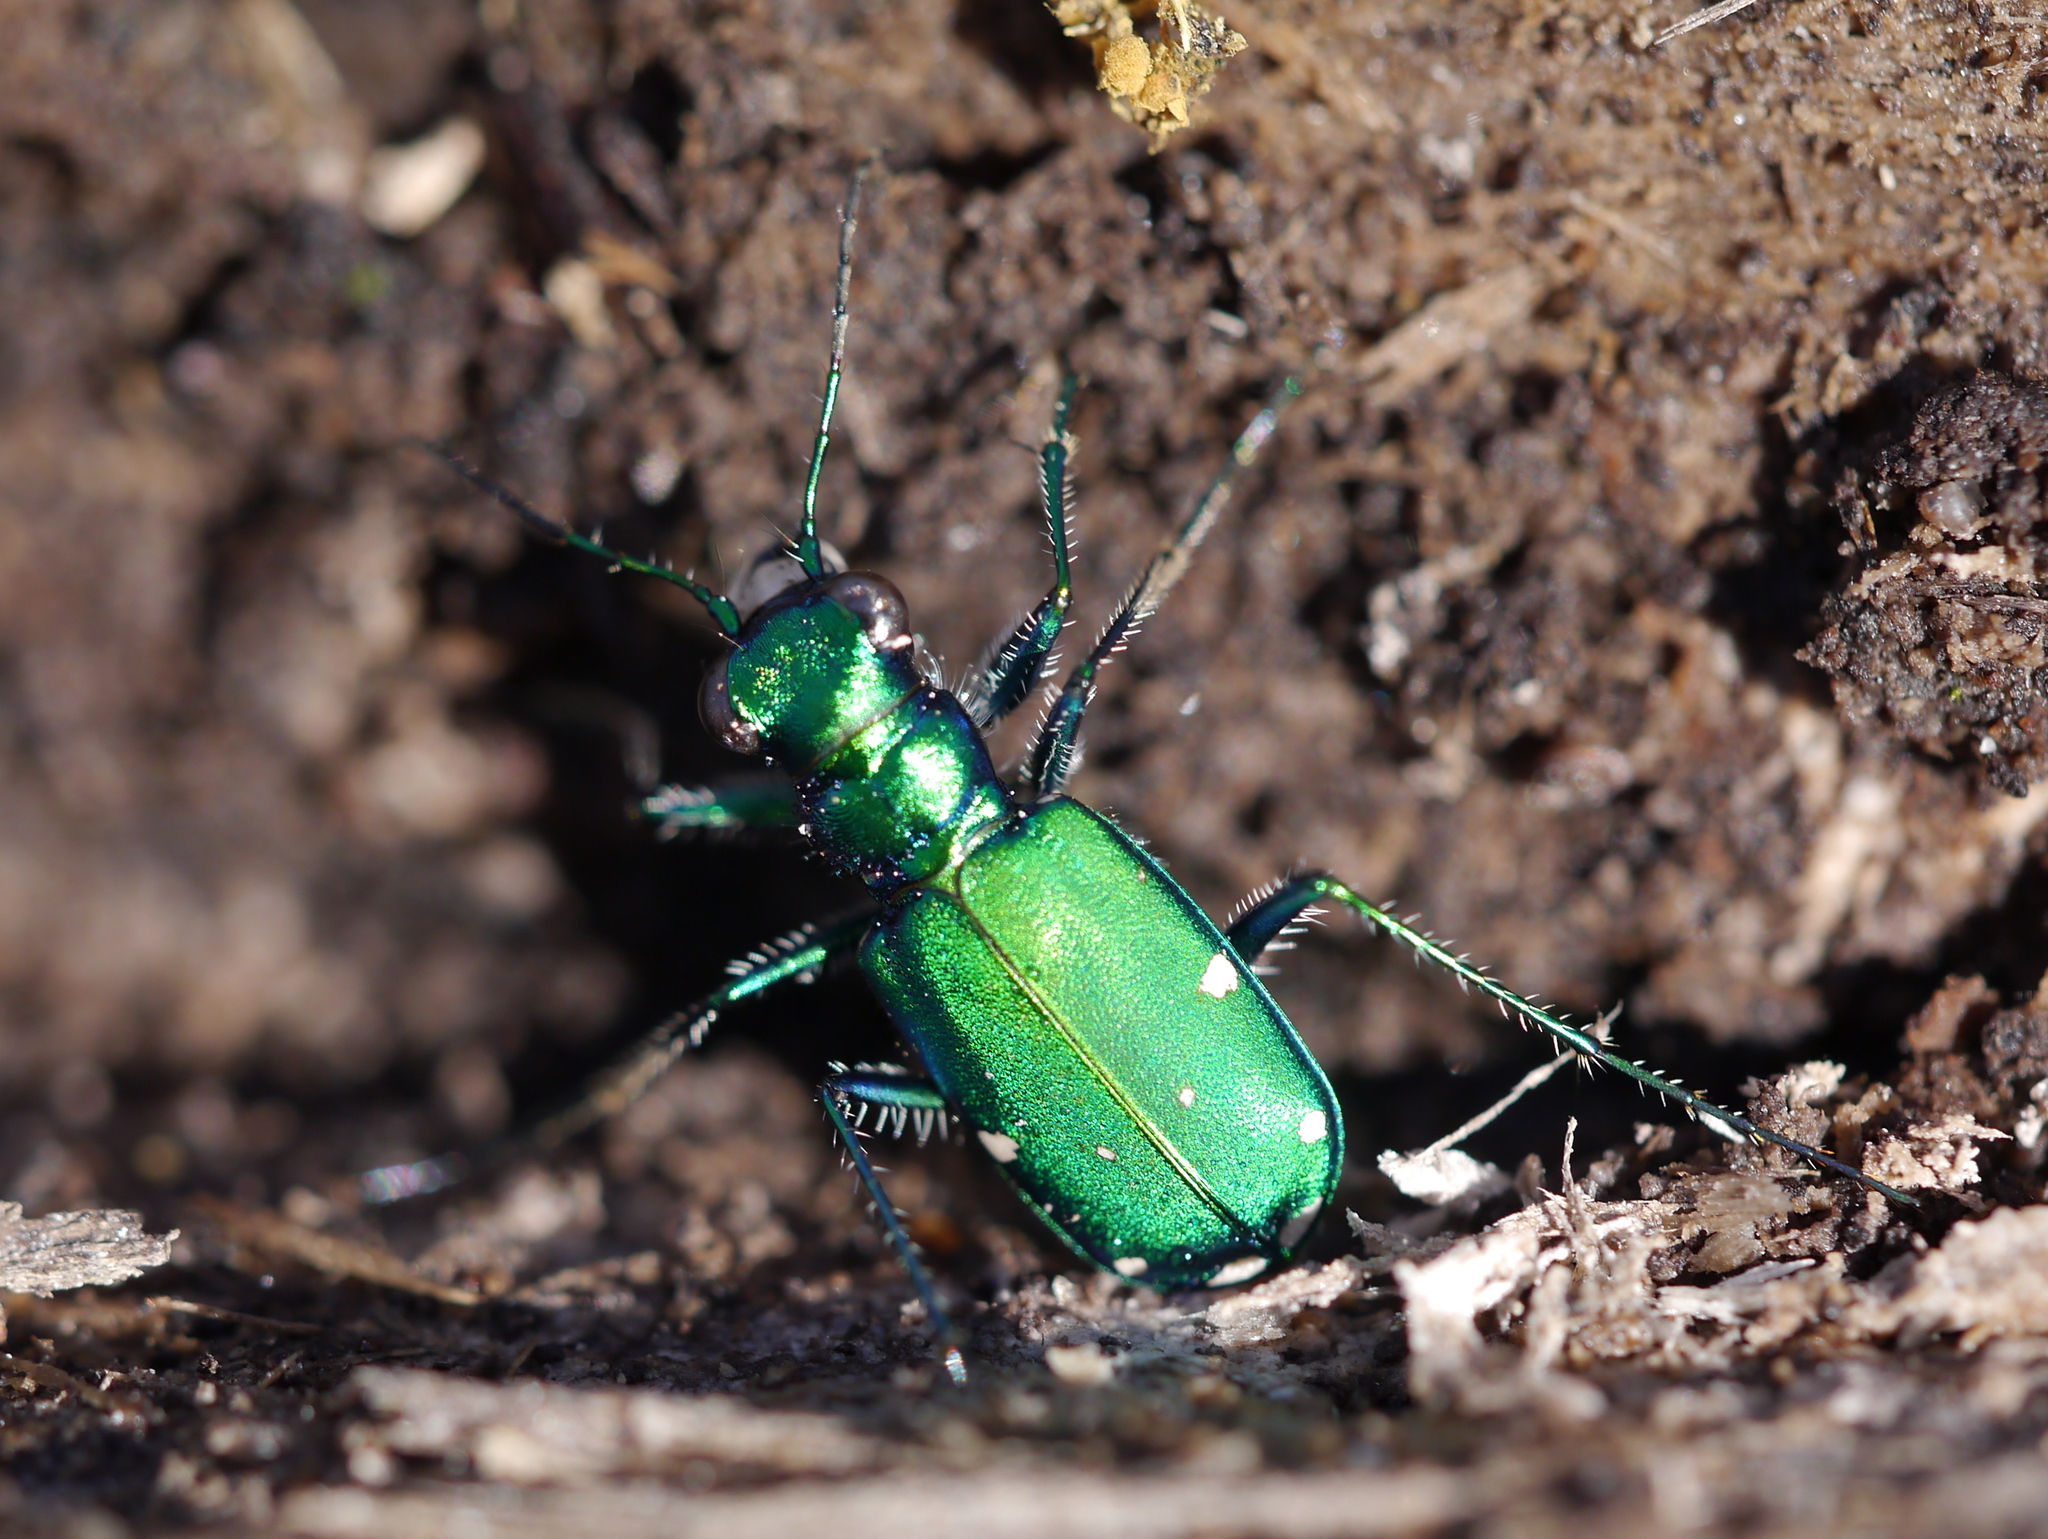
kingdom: Animalia
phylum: Arthropoda
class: Insecta
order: Coleoptera
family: Carabidae
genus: Cicindela
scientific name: Cicindela sexguttata
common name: Six-spotted tiger beetle
